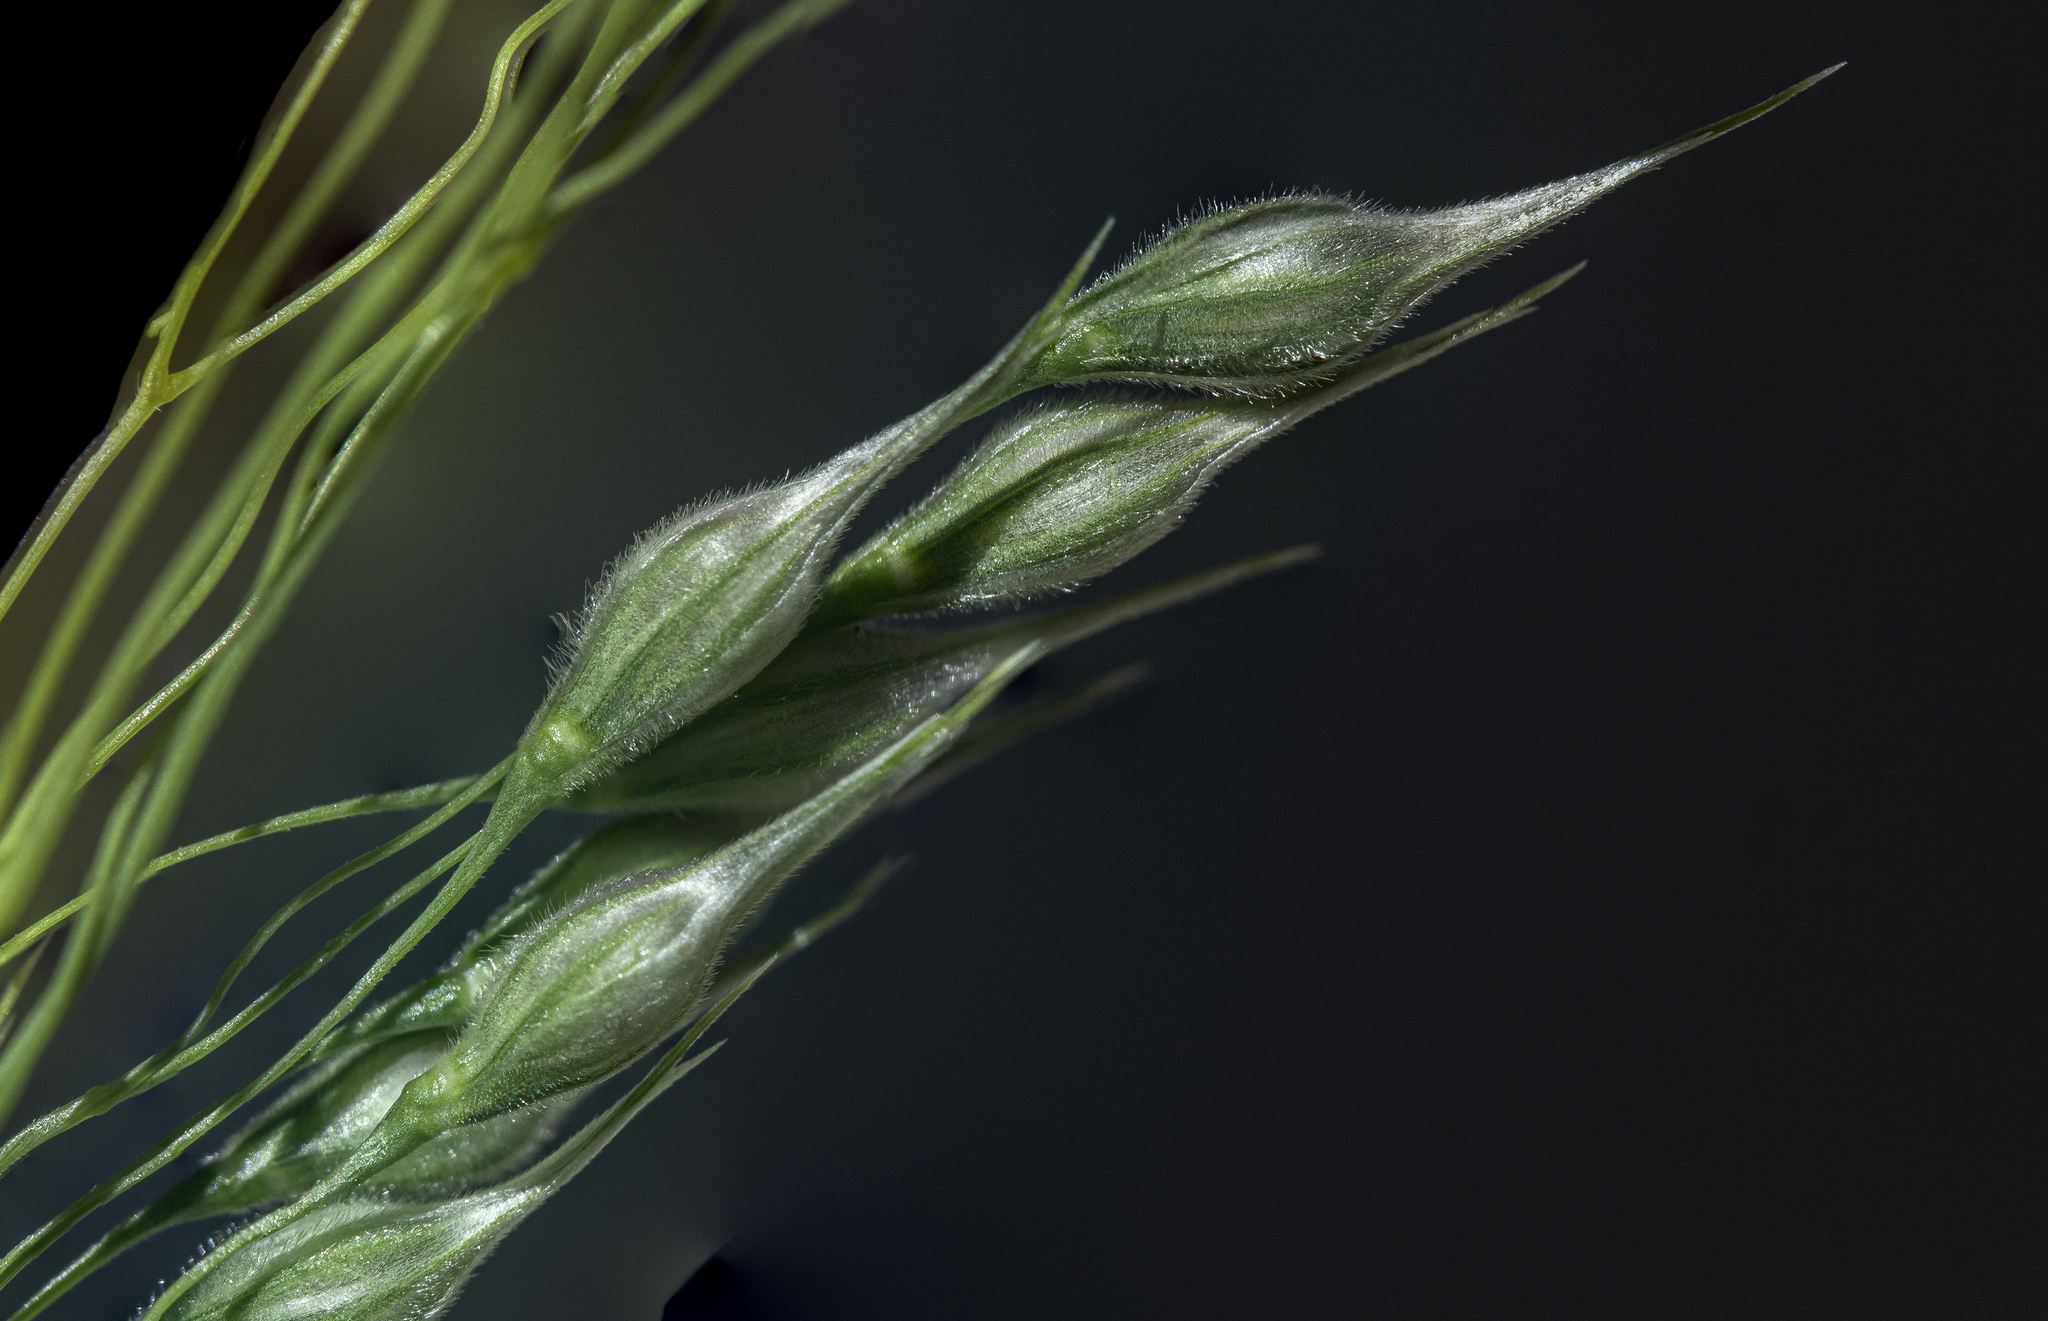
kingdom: Plantae
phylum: Tracheophyta
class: Liliopsida
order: Poales
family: Poaceae
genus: Eriocoma
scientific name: Eriocoma hymenoides
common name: Indian mountain ricegrass
